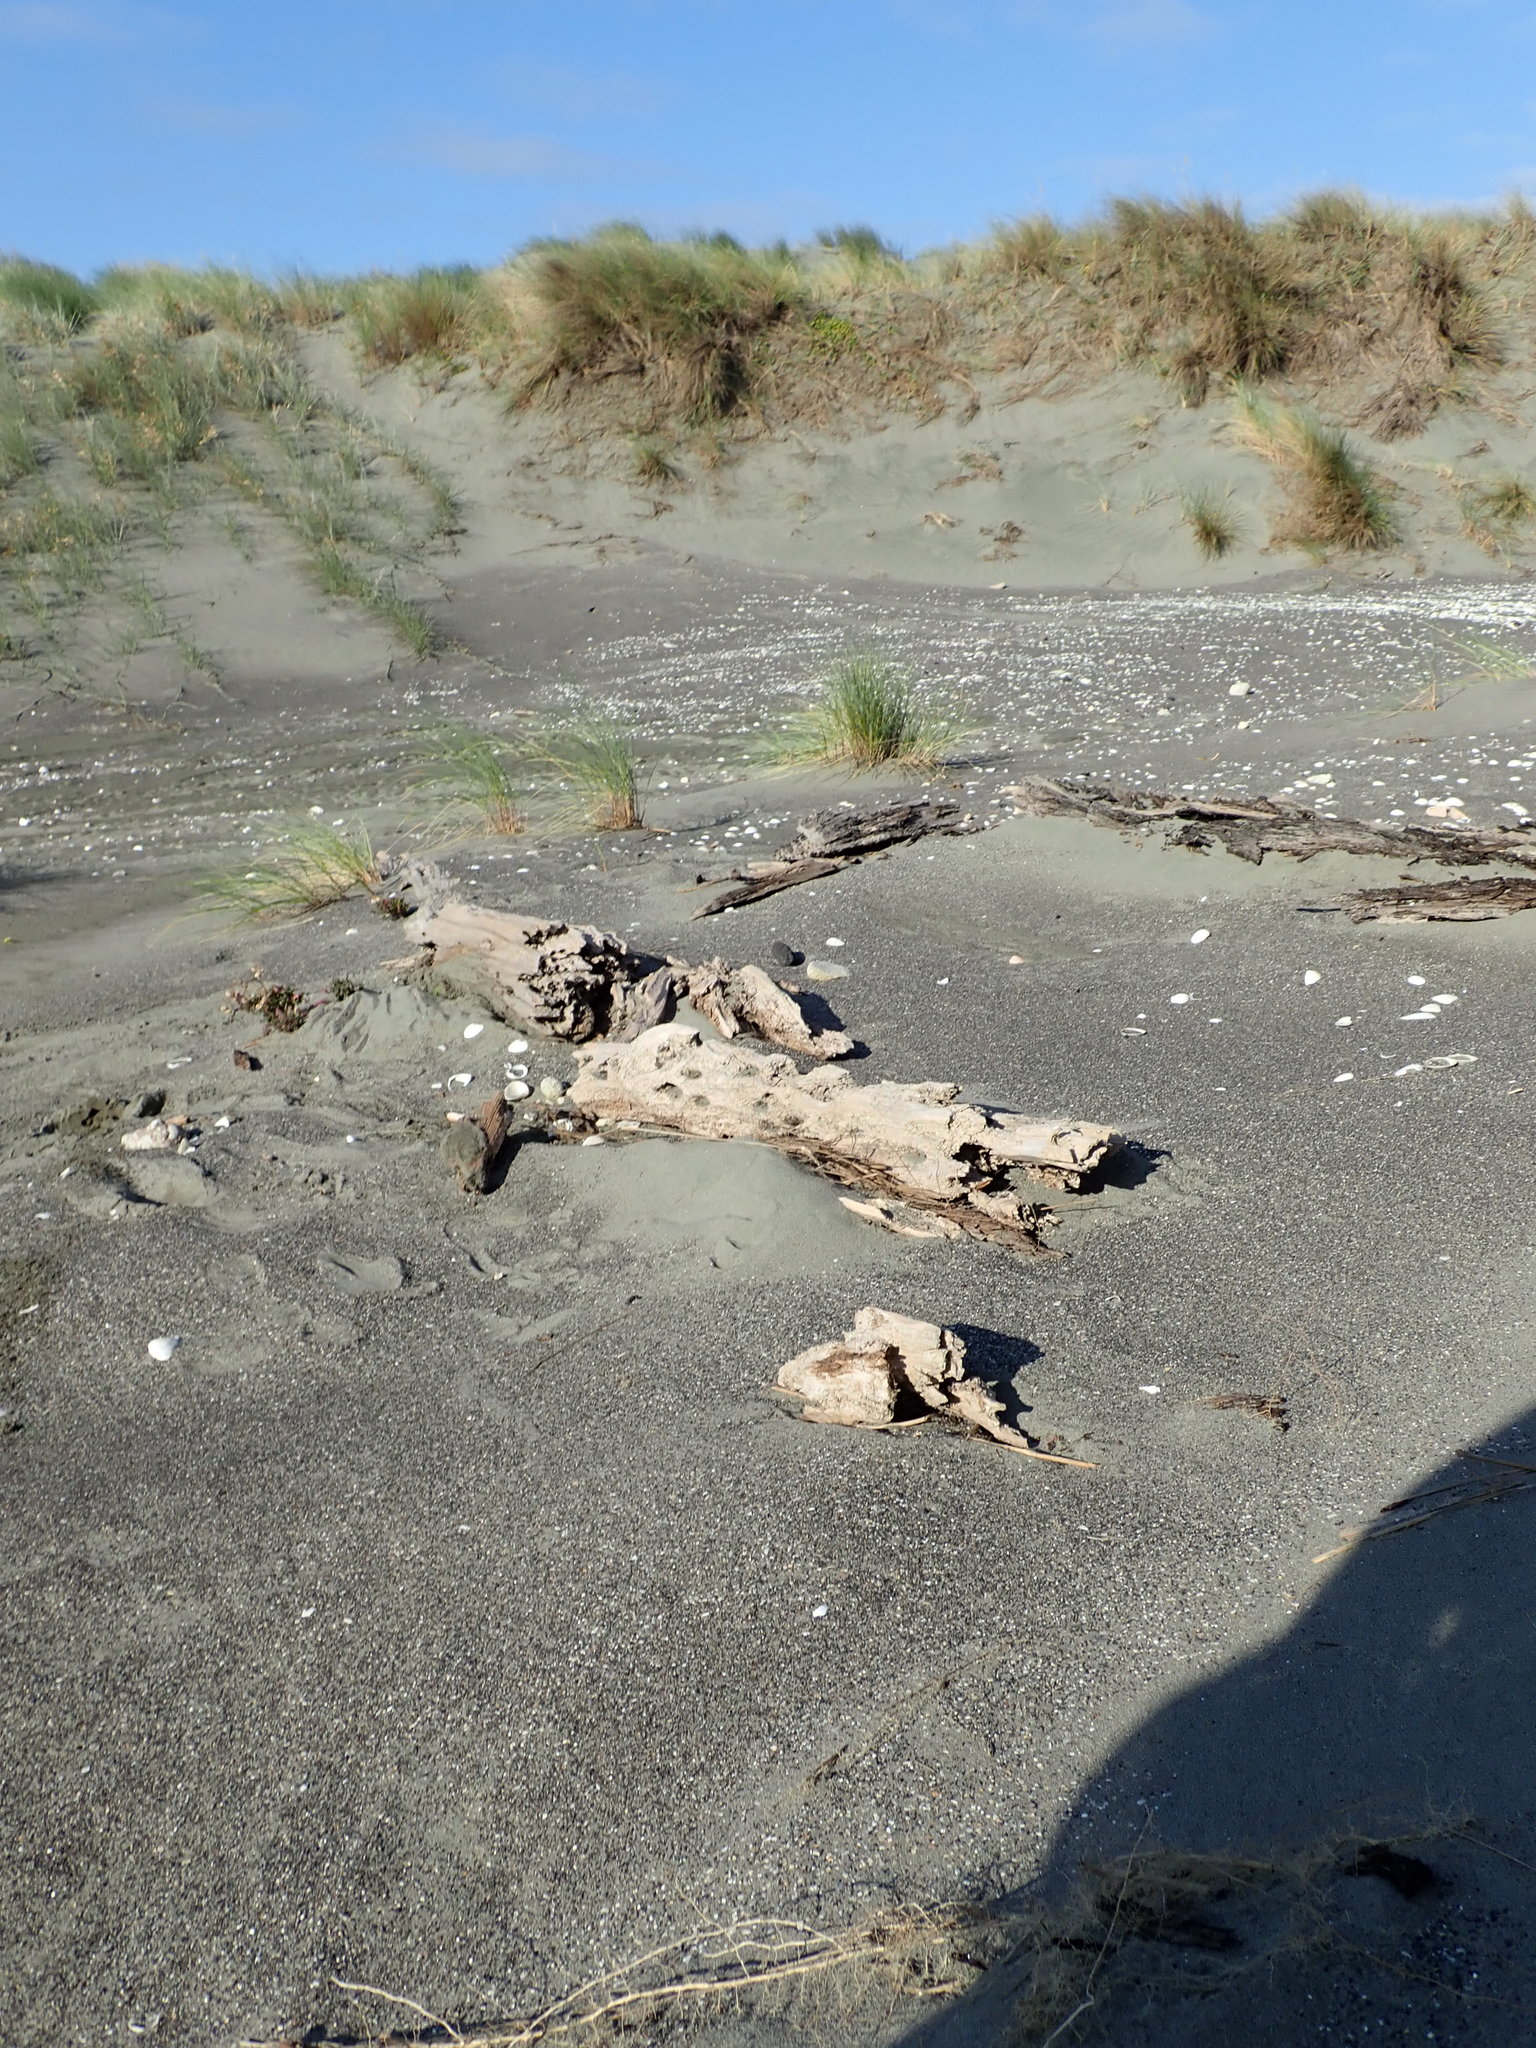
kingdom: Animalia
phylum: Arthropoda
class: Arachnida
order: Araneae
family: Theridiidae
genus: Steatoda
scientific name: Steatoda capensis
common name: Cobweb weaver
